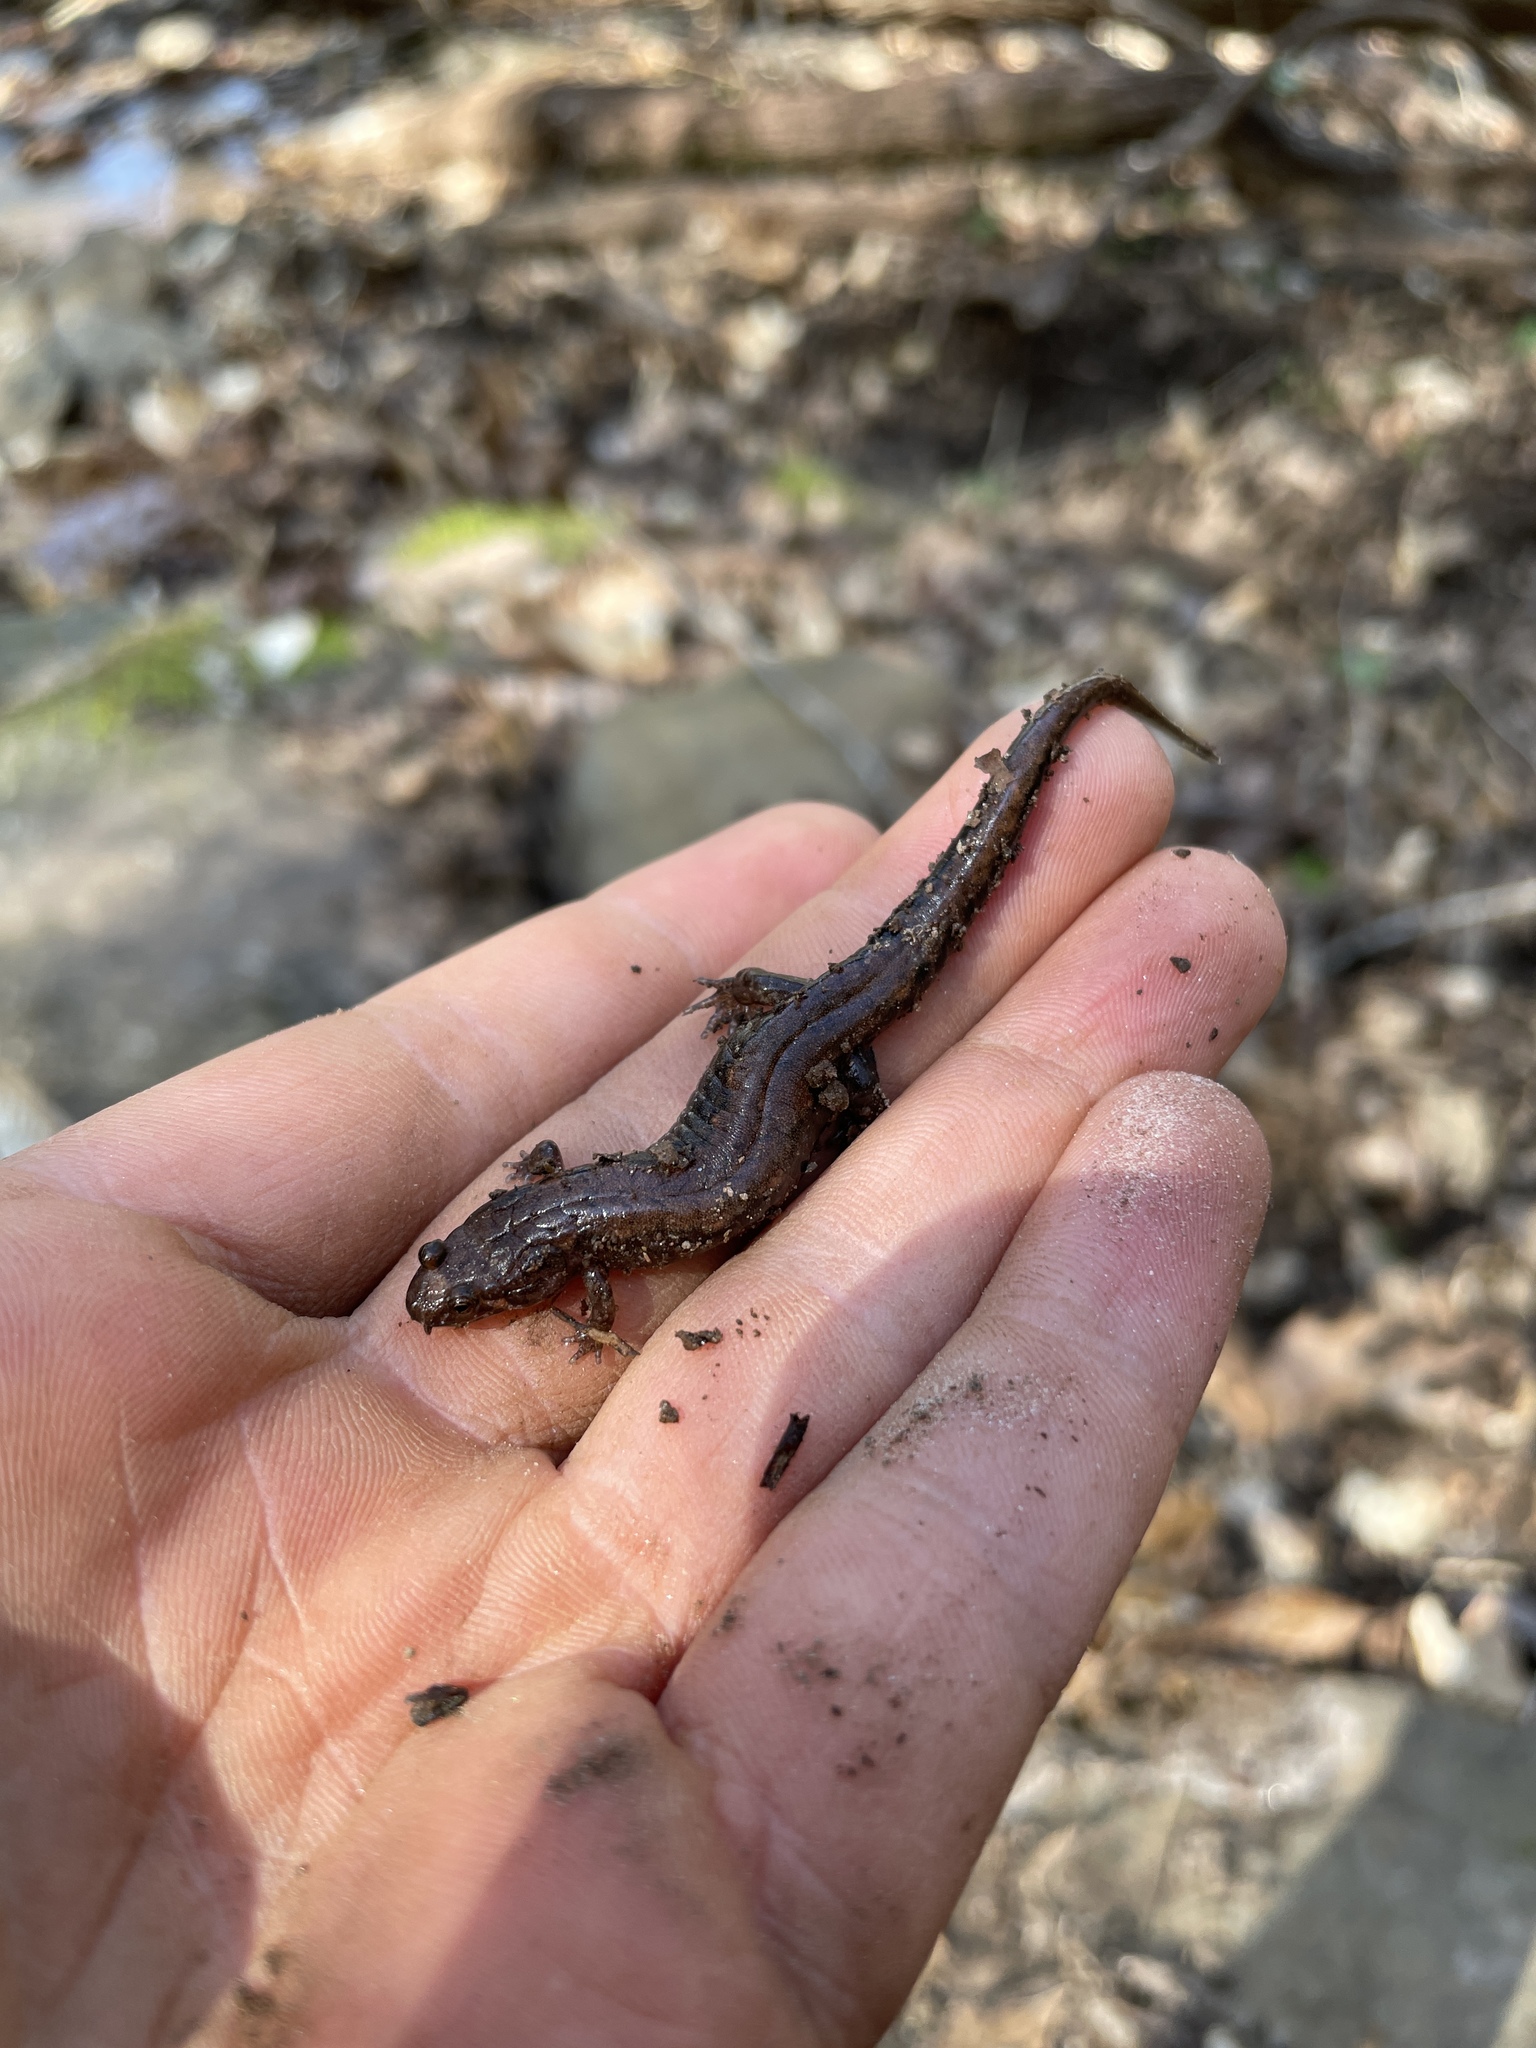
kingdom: Animalia
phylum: Chordata
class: Amphibia
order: Caudata
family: Plethodontidae
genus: Desmognathus
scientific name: Desmognathus ocoee
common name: Ocoee salamander
